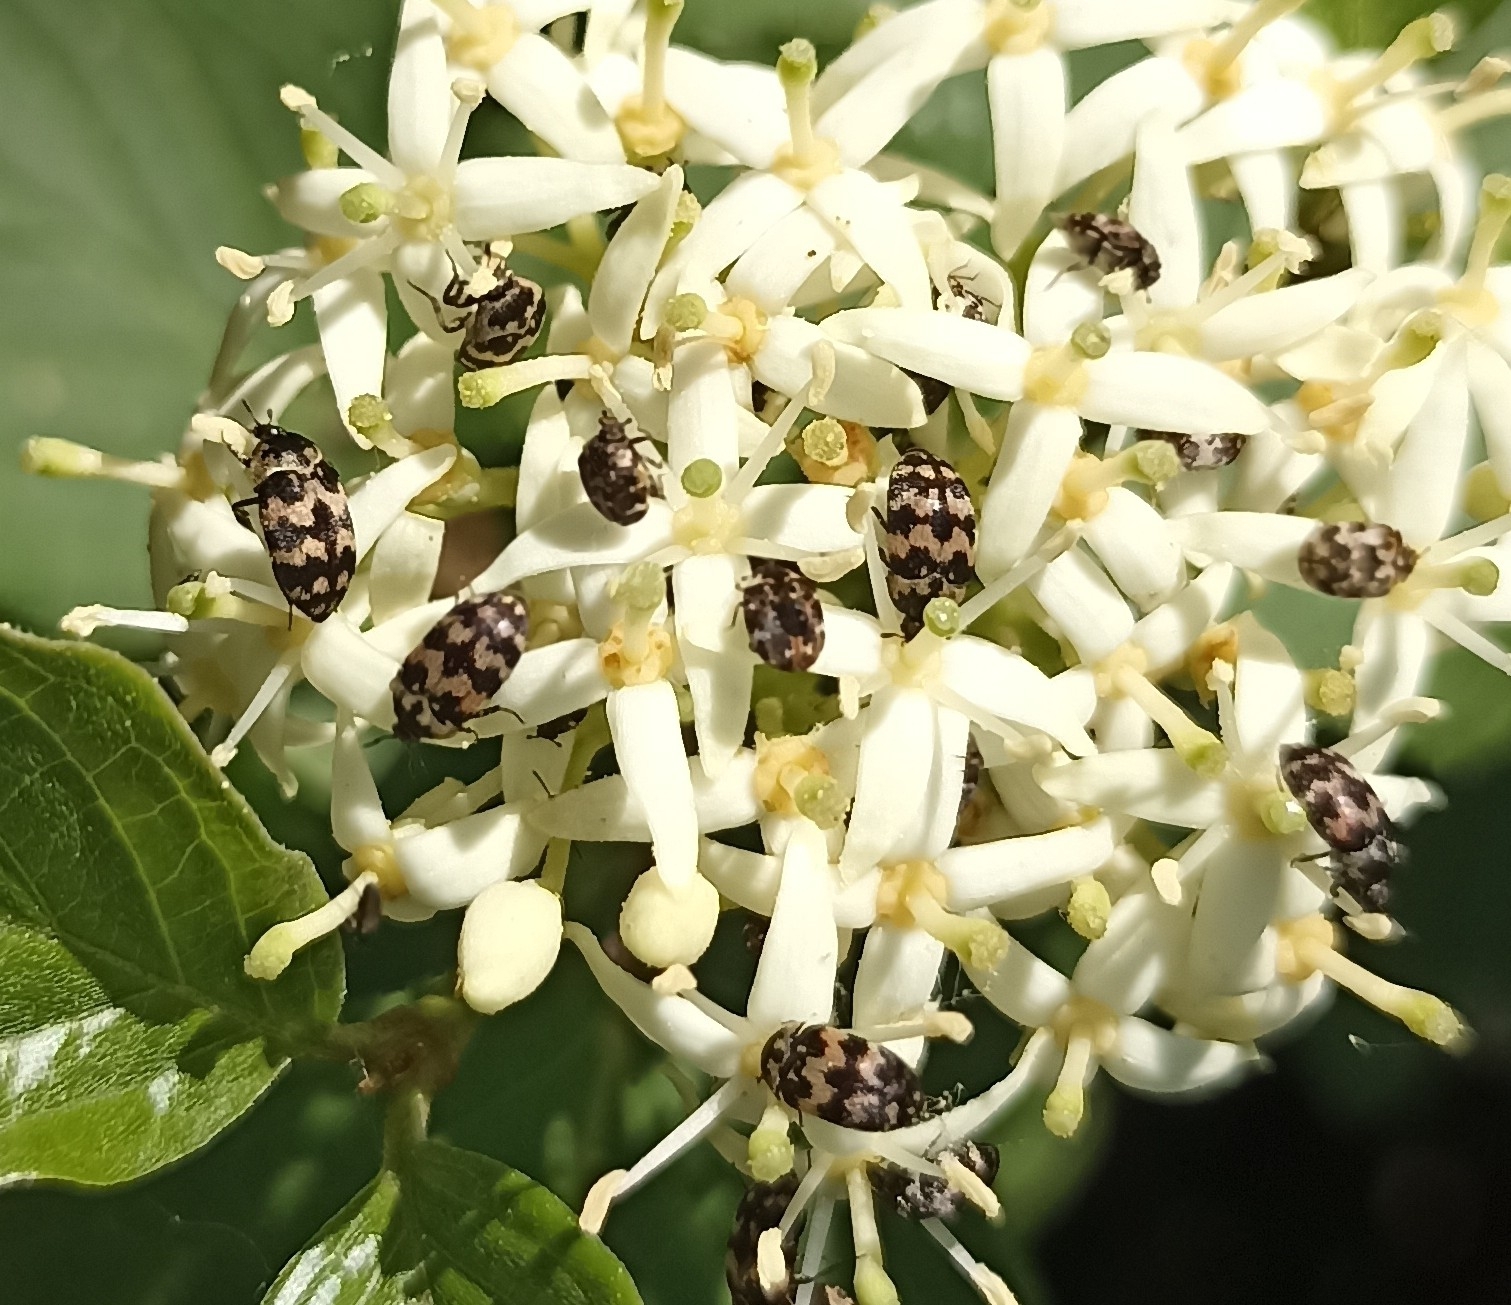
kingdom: Animalia
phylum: Arthropoda
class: Insecta
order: Coleoptera
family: Dermestidae
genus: Attagenus
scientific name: Attagenus trifasciatus
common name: Carpet beetle
